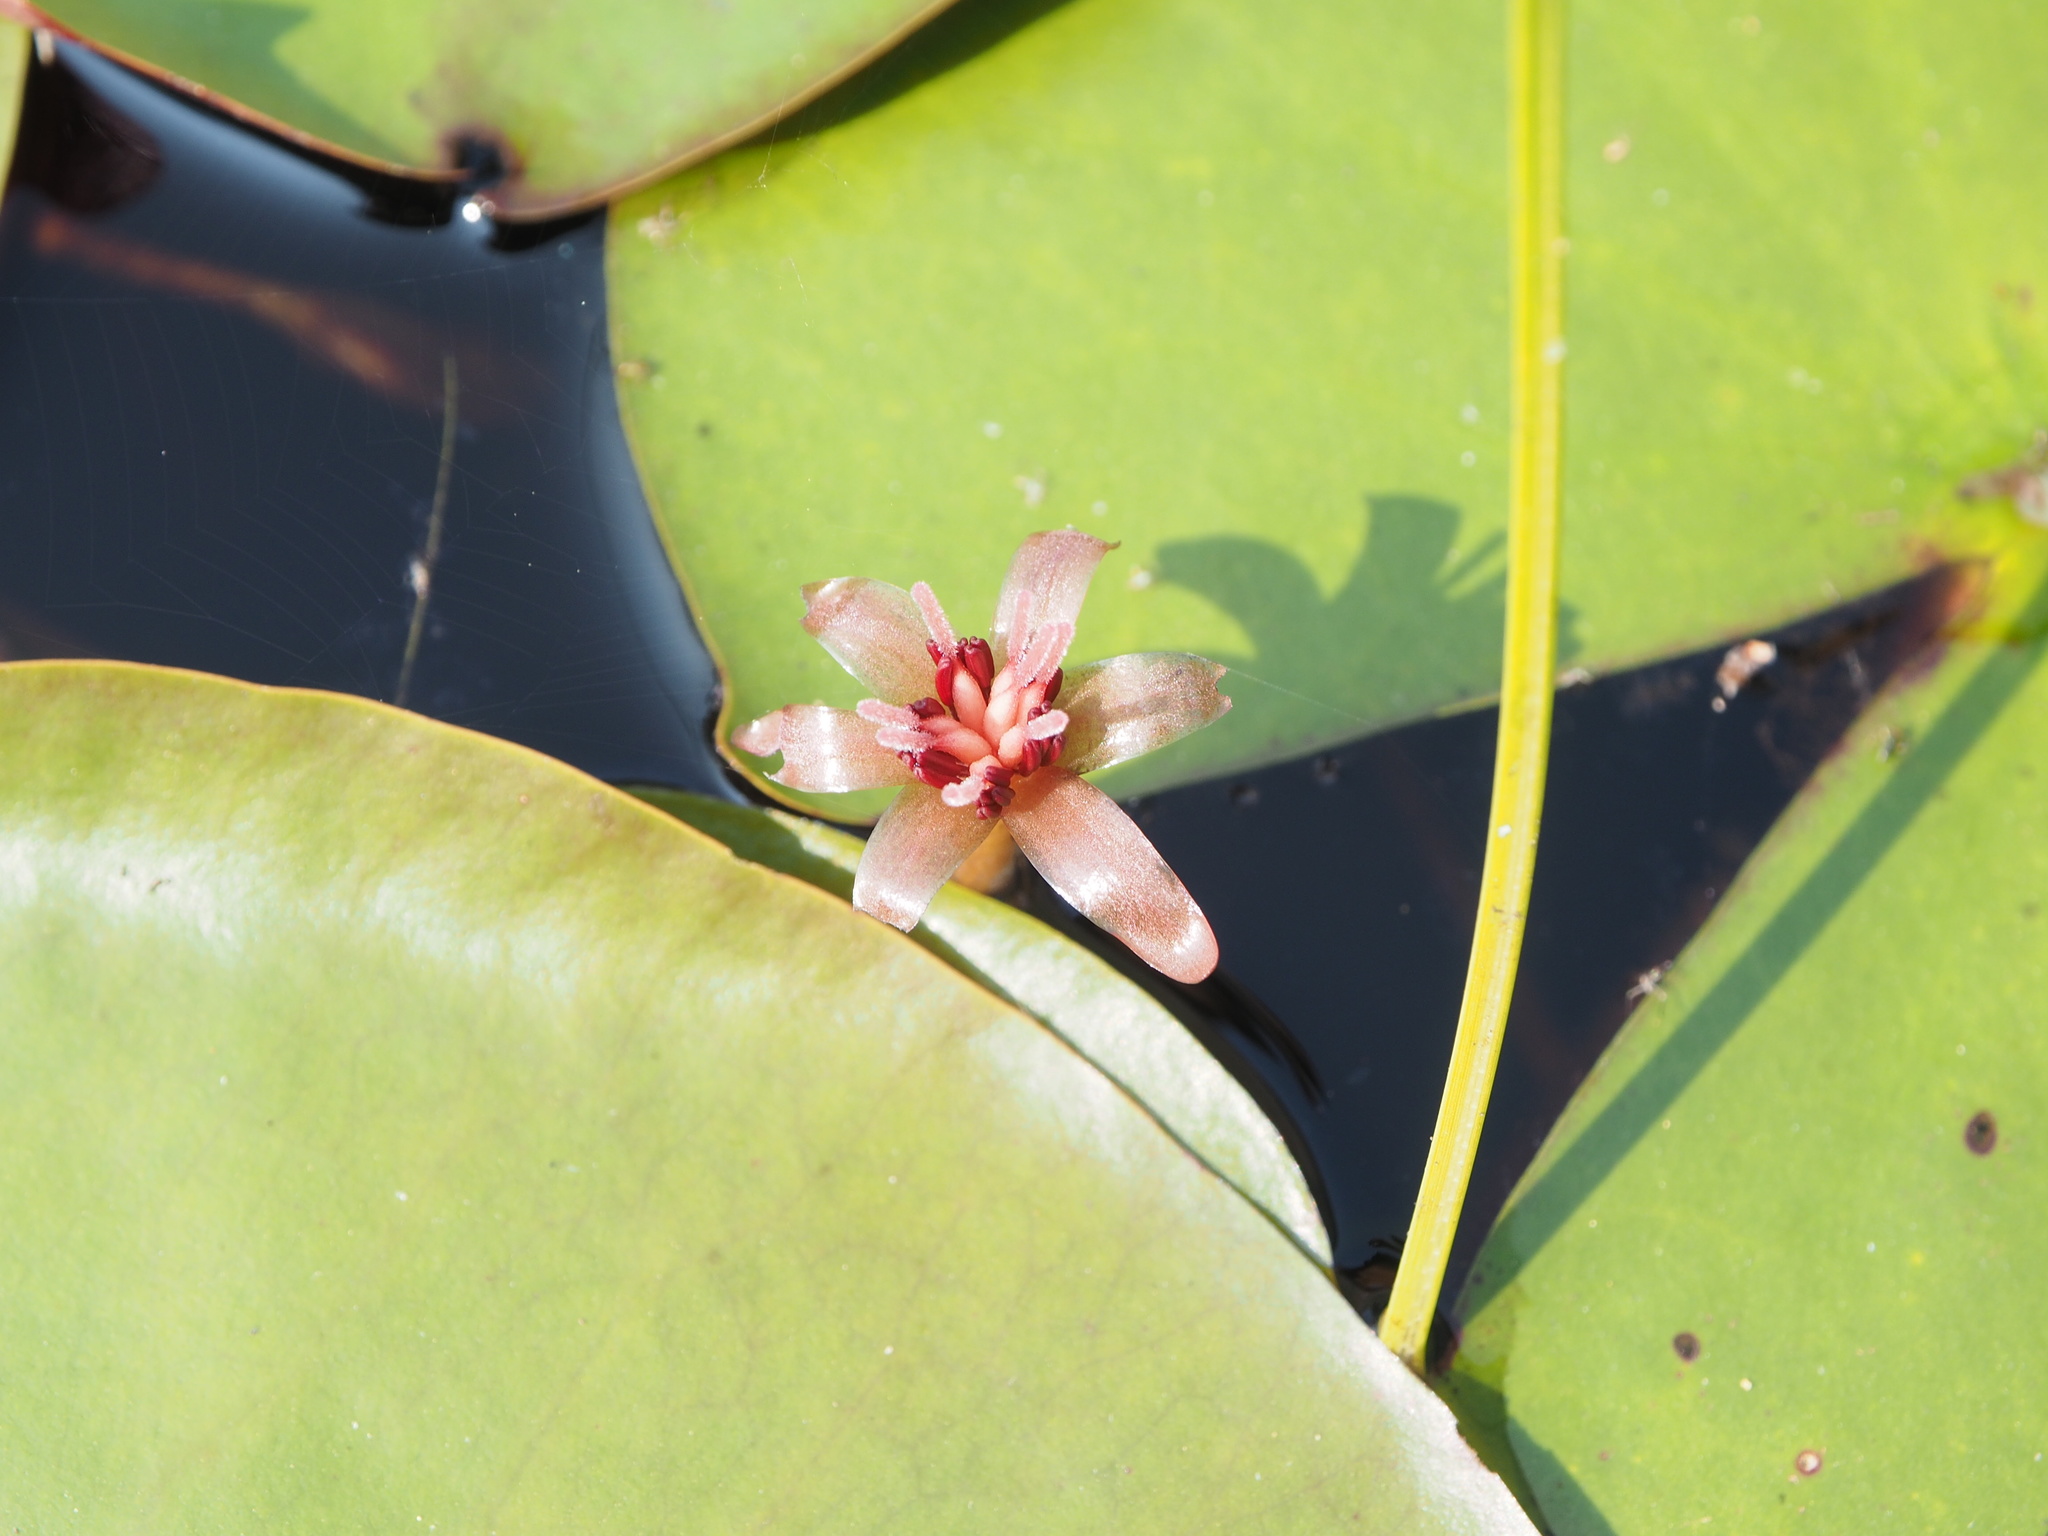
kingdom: Plantae
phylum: Tracheophyta
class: Magnoliopsida
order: Nymphaeales
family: Cabombaceae
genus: Brasenia
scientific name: Brasenia schreberi
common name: Water-shield
